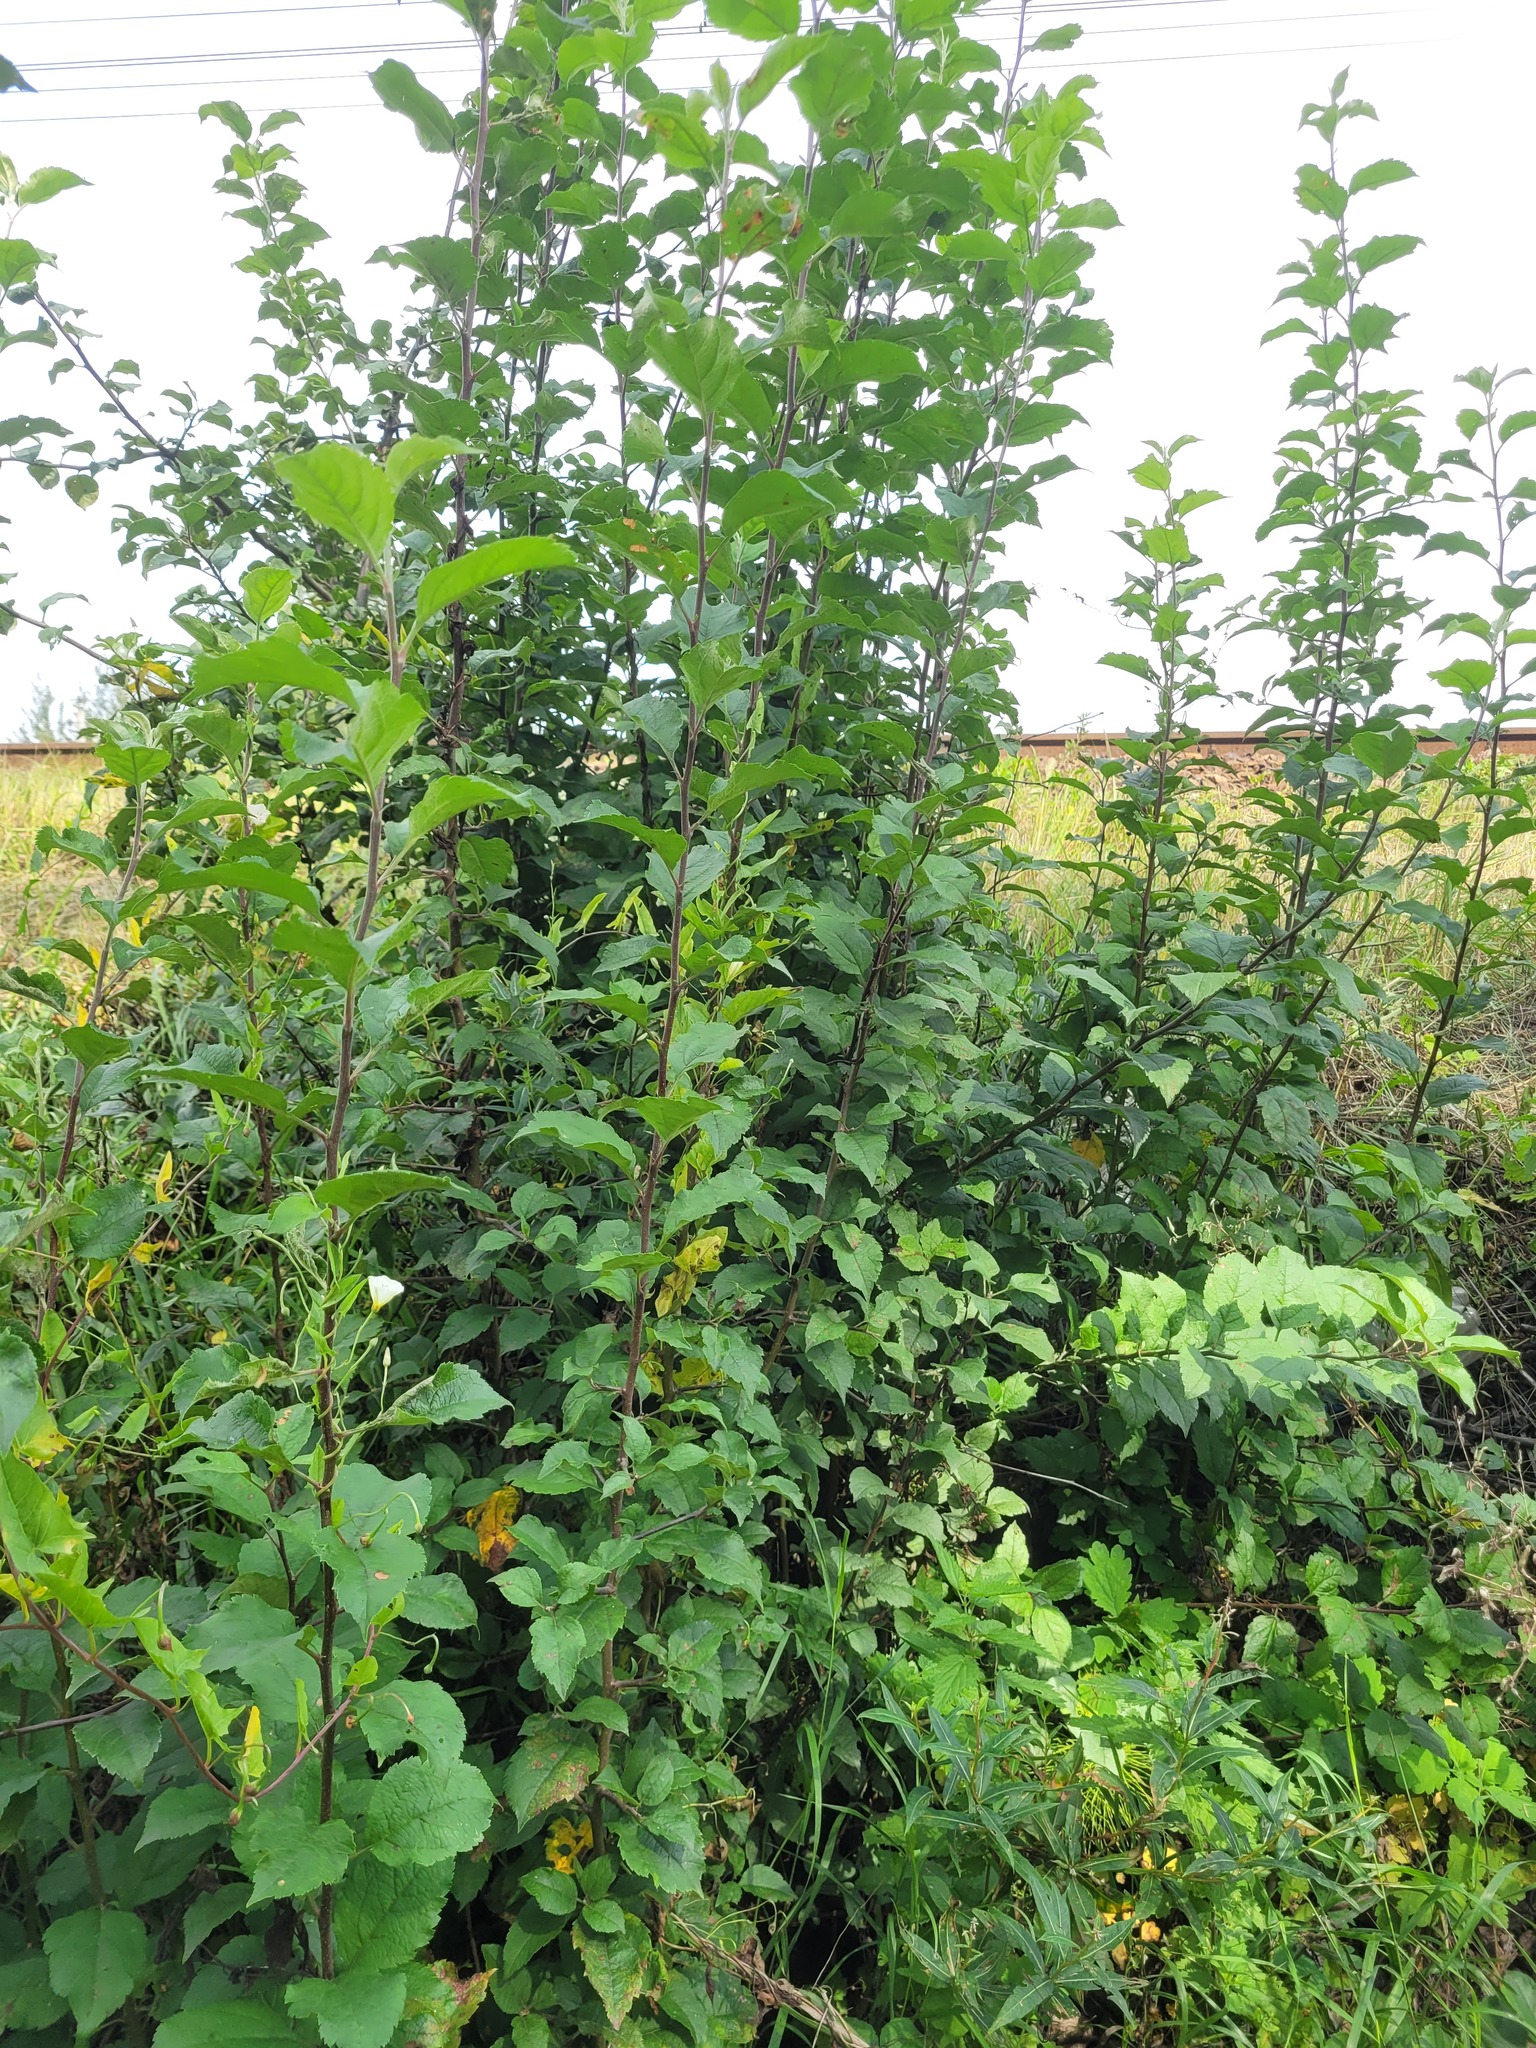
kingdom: Plantae
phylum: Tracheophyta
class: Magnoliopsida
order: Rosales
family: Rosaceae
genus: Malus
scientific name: Malus domestica
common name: Apple
